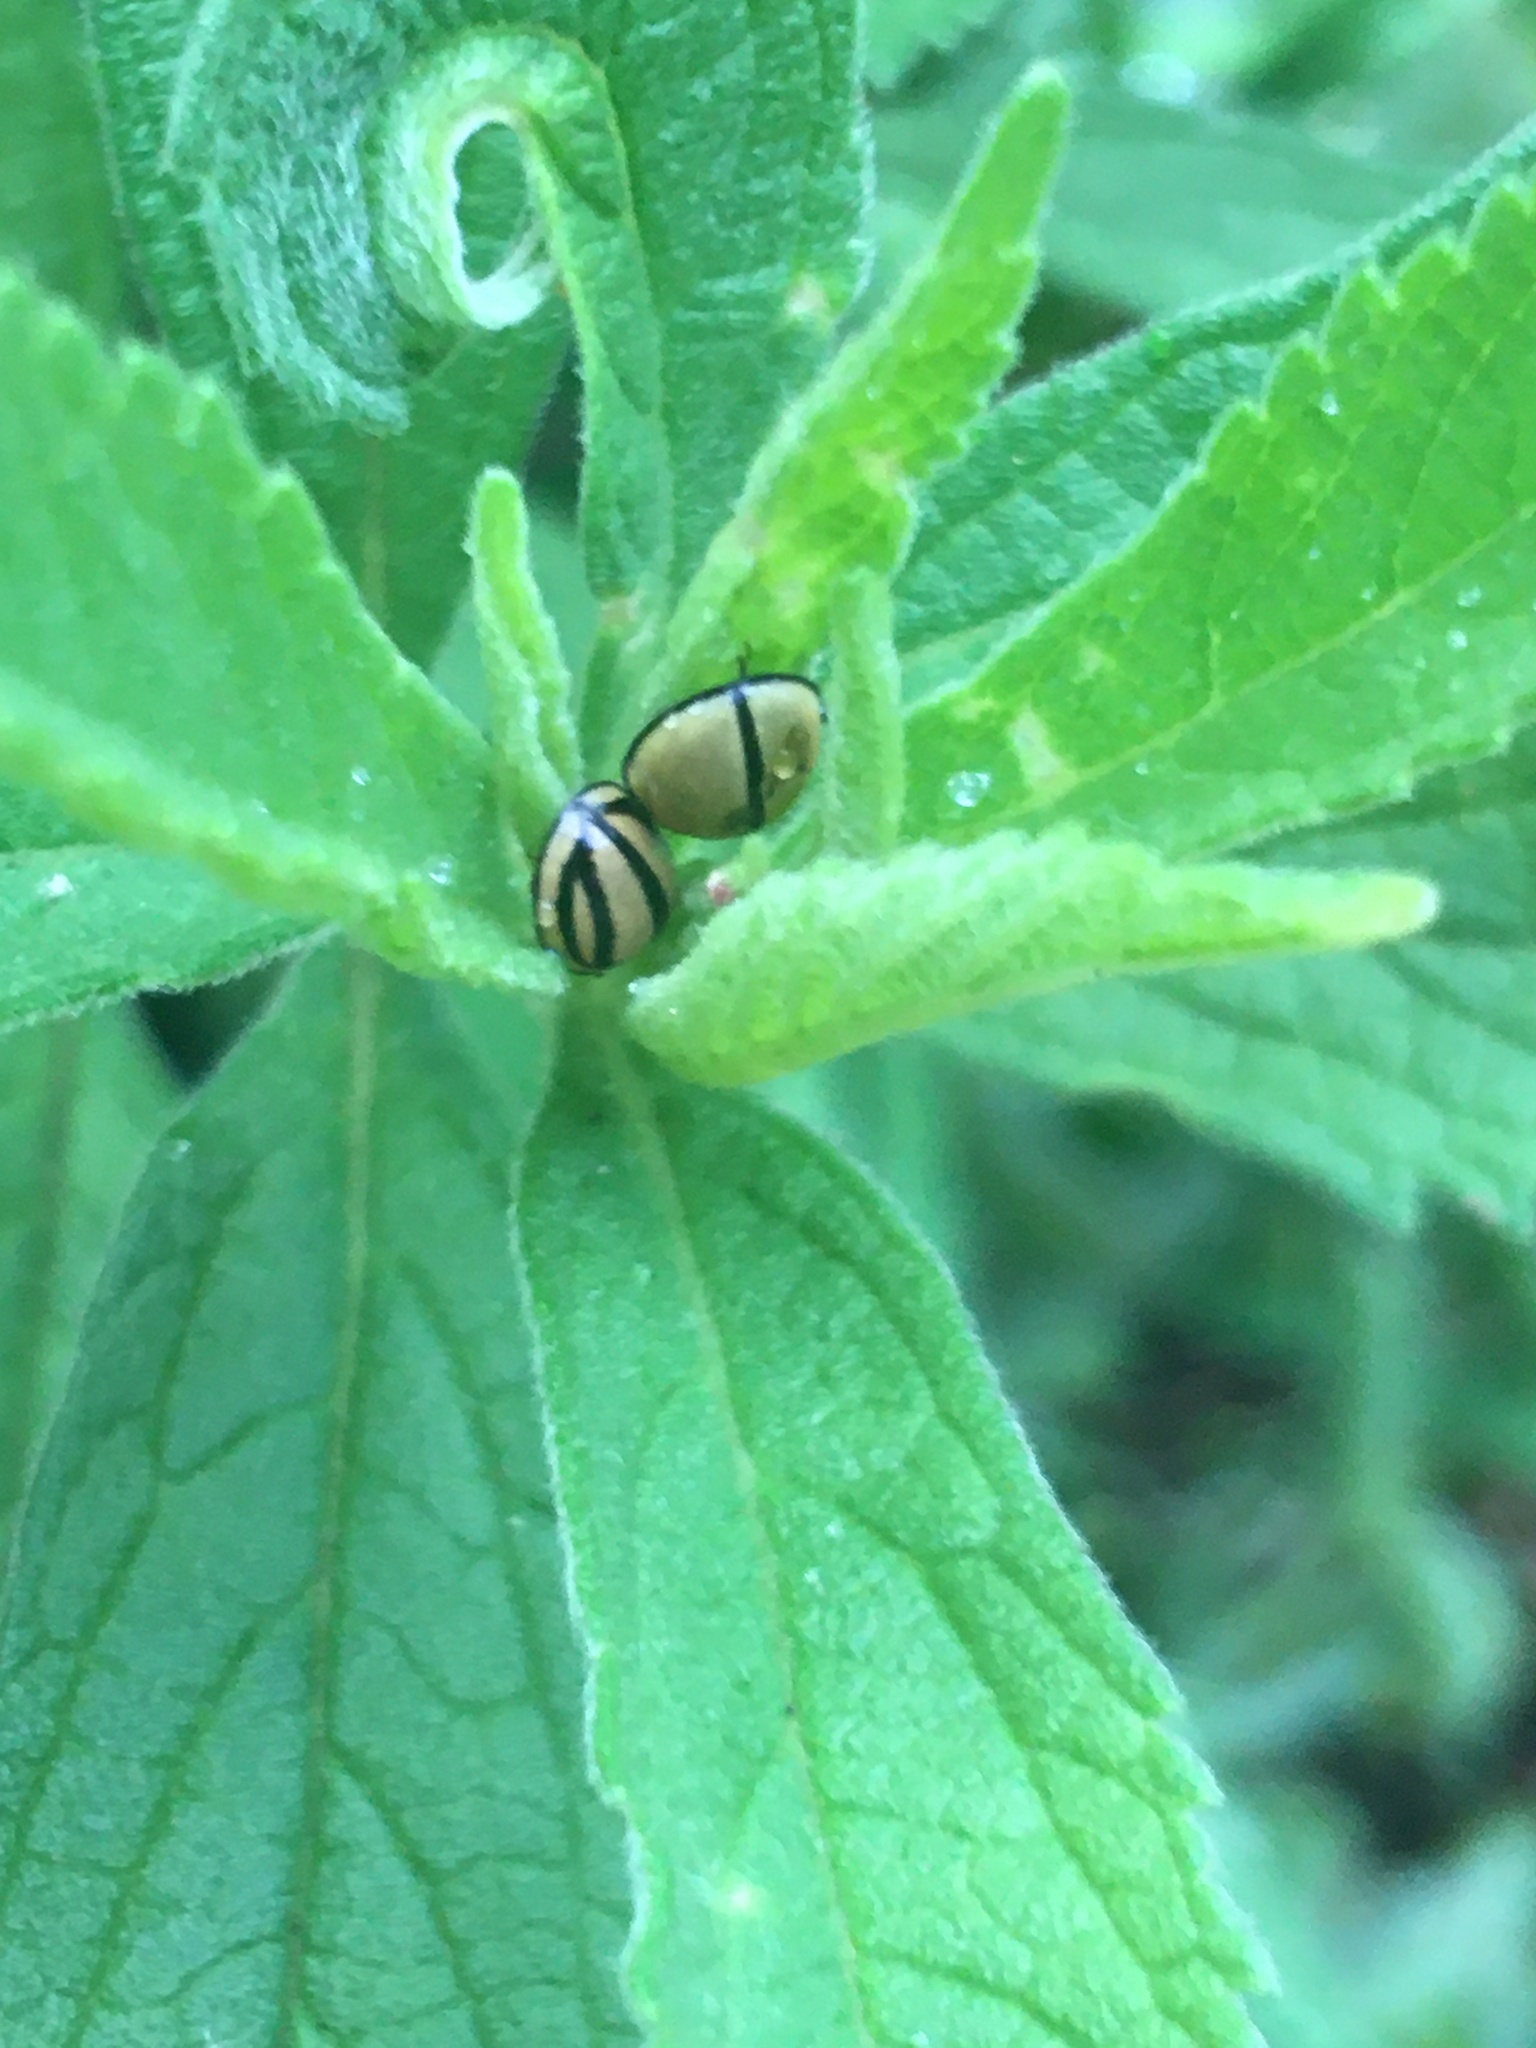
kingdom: Animalia
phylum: Arthropoda
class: Insecta
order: Coleoptera
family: Coccinellidae
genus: Cheilomenes
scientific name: Cheilomenes propinqua
